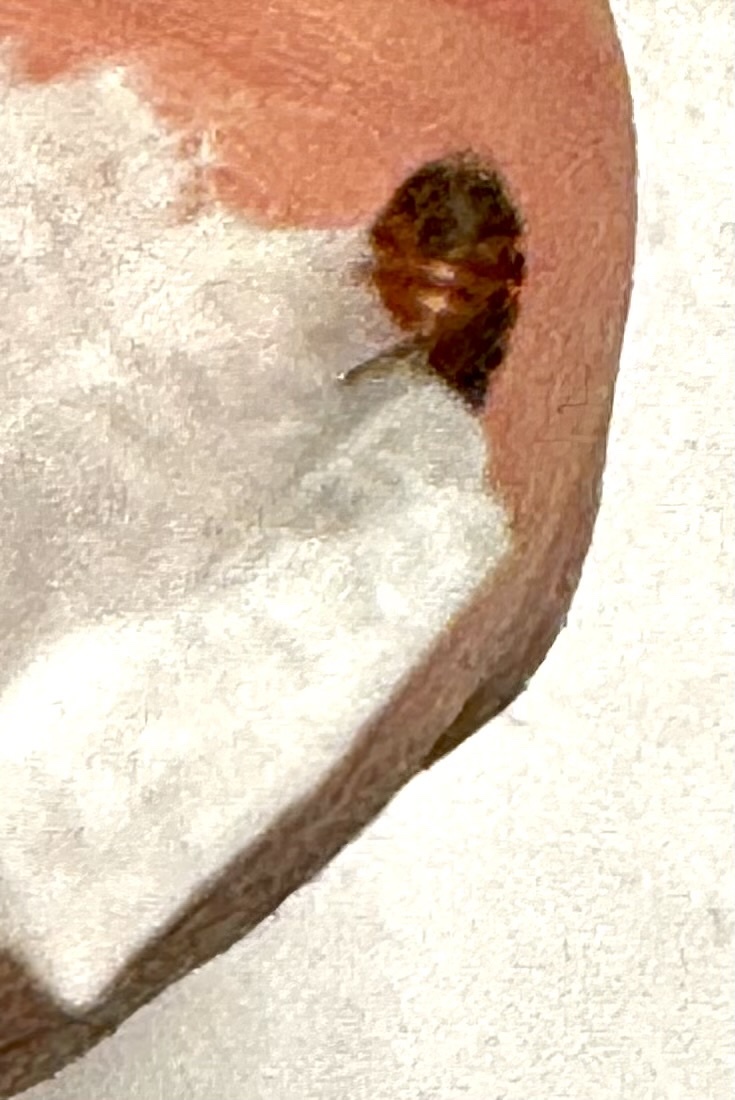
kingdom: Animalia
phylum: Arthropoda
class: Insecta
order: Hemiptera
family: Lygaeidae
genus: Arocatus
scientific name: Arocatus melanocephalus
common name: Lygaeid bug
